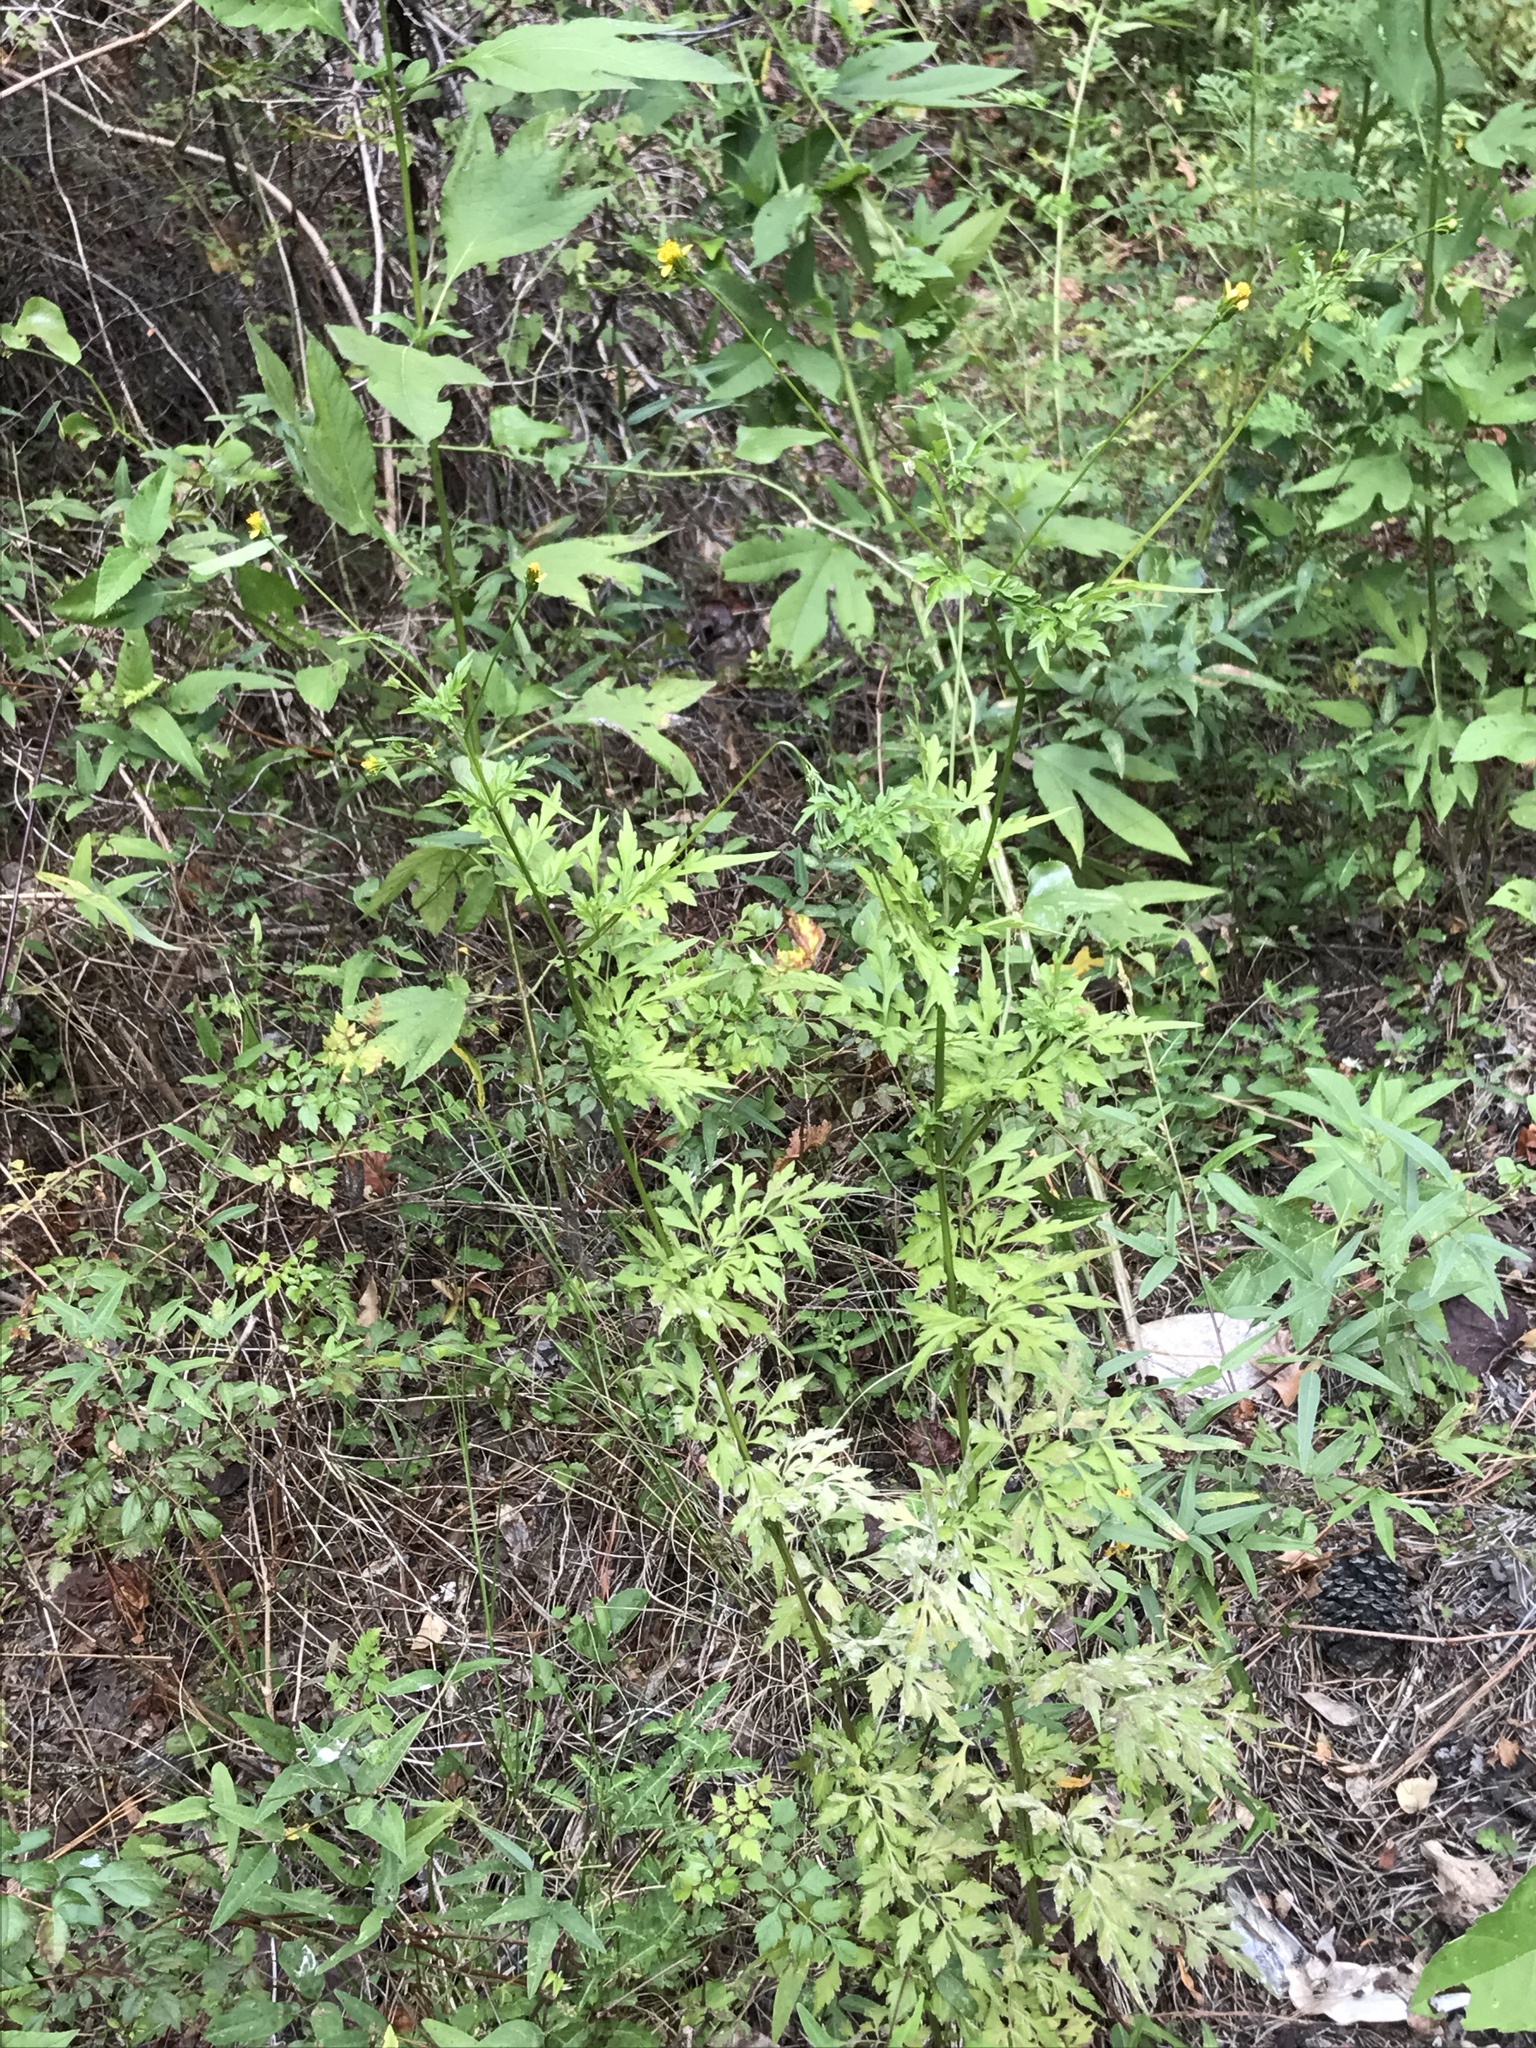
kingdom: Plantae
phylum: Tracheophyta
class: Magnoliopsida
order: Asterales
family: Asteraceae
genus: Bidens
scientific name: Bidens bipinnata
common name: Spanish-needles
